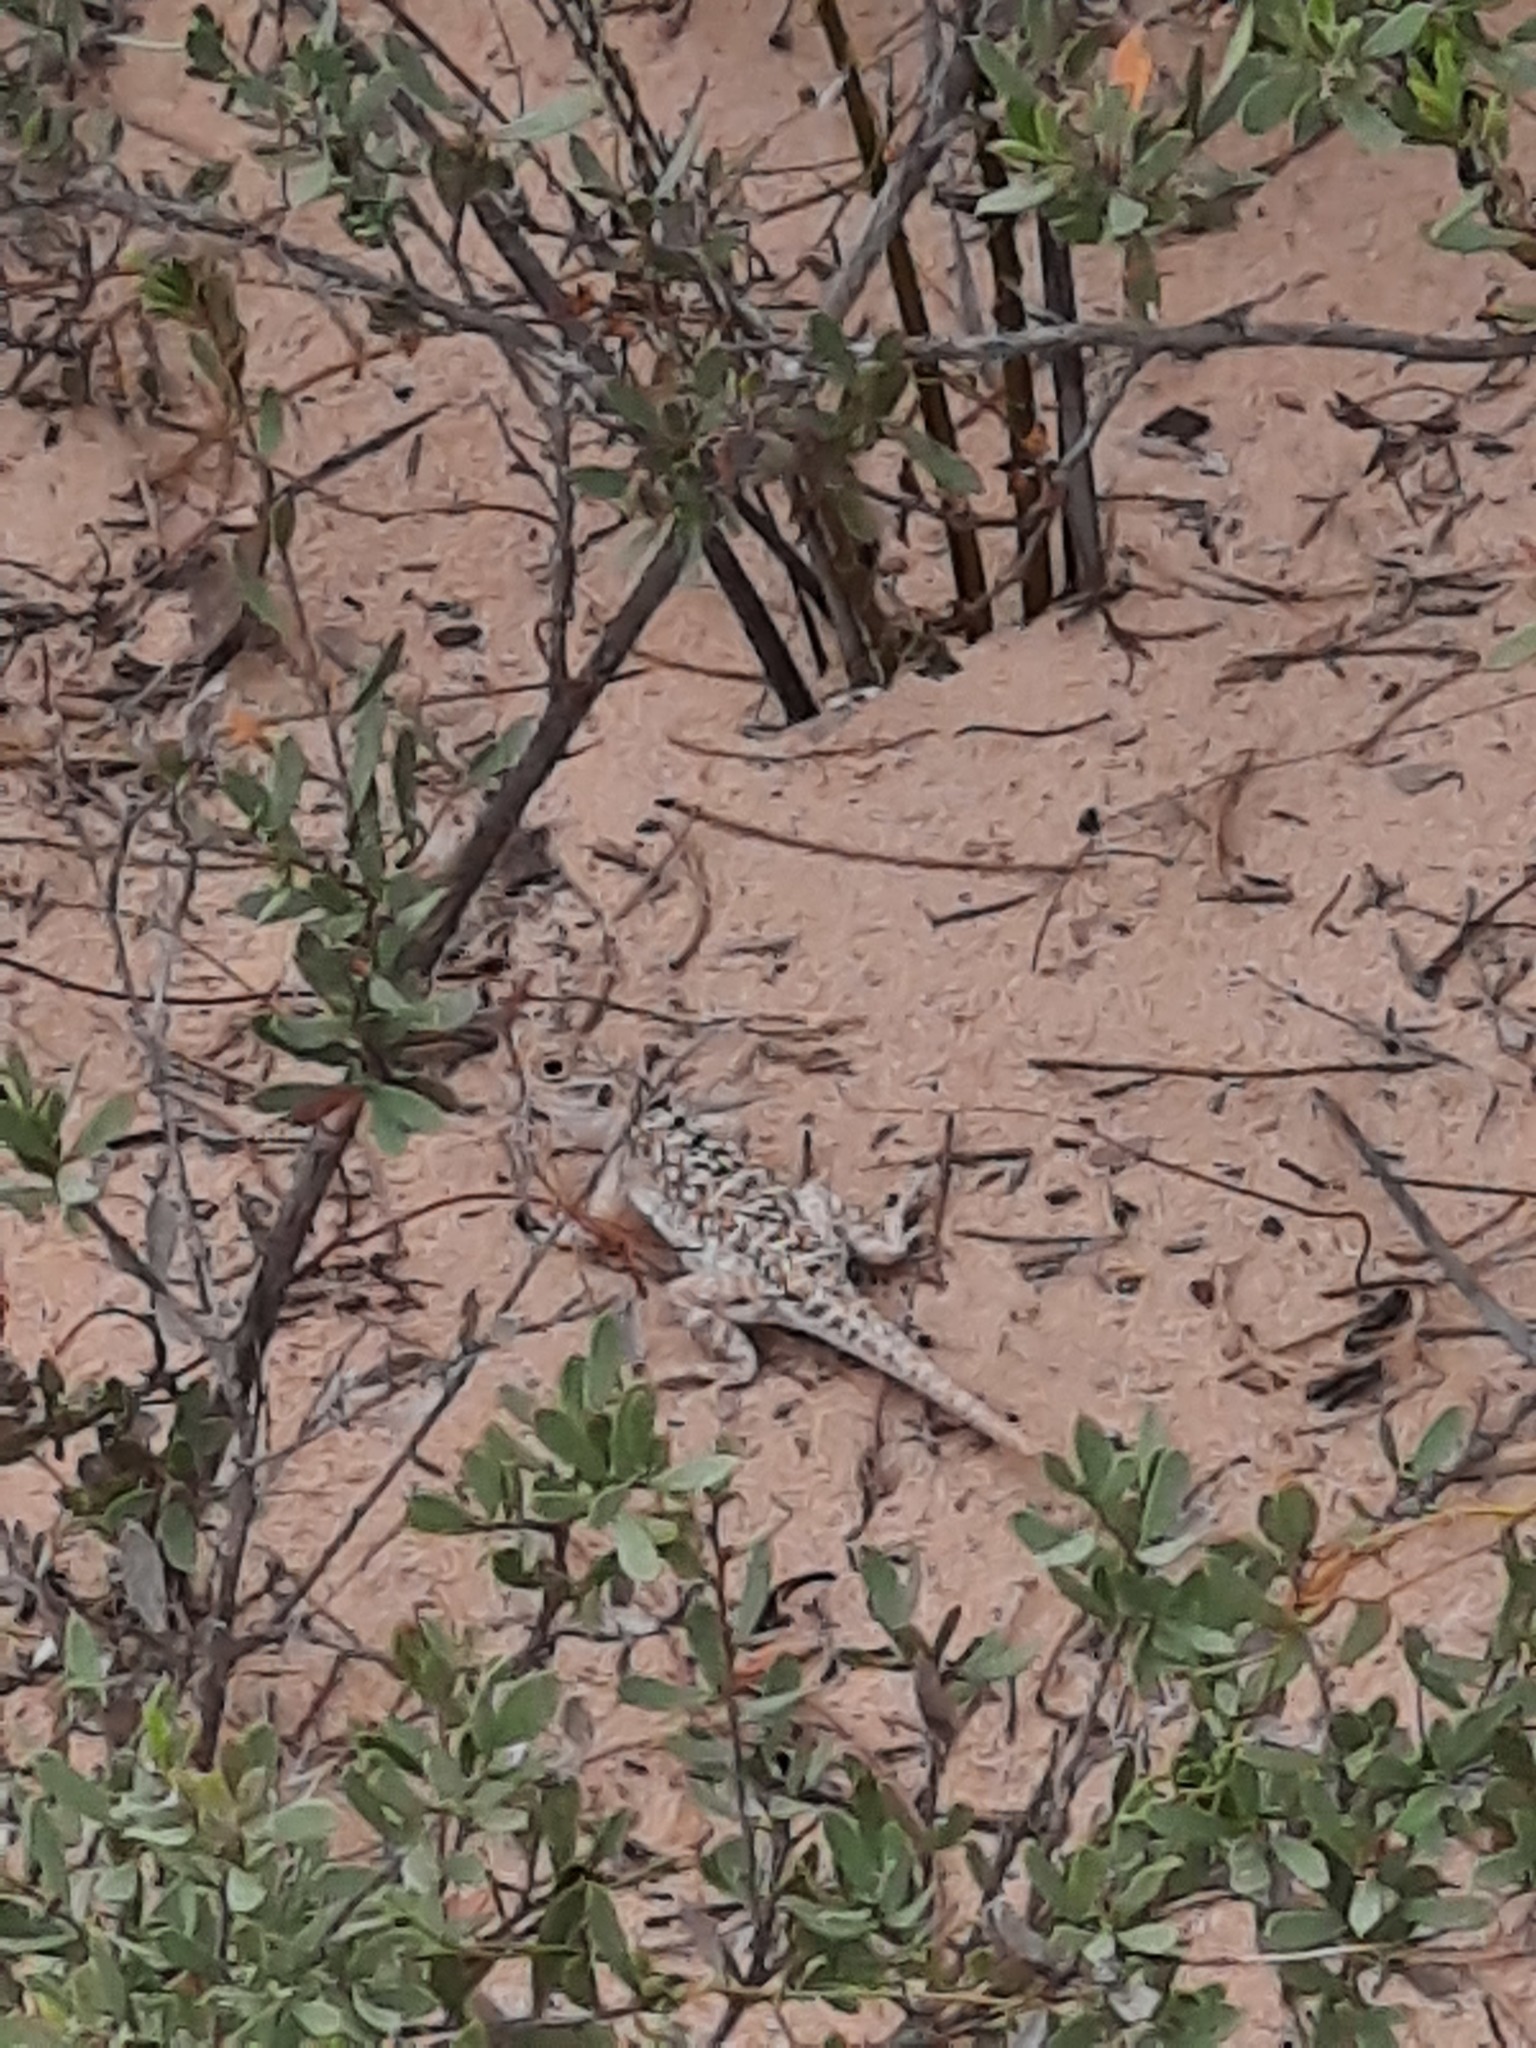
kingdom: Animalia
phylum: Chordata
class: Squamata
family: Agamidae
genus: Ctenophorus
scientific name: Ctenophorus pictus
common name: Painted dragon
